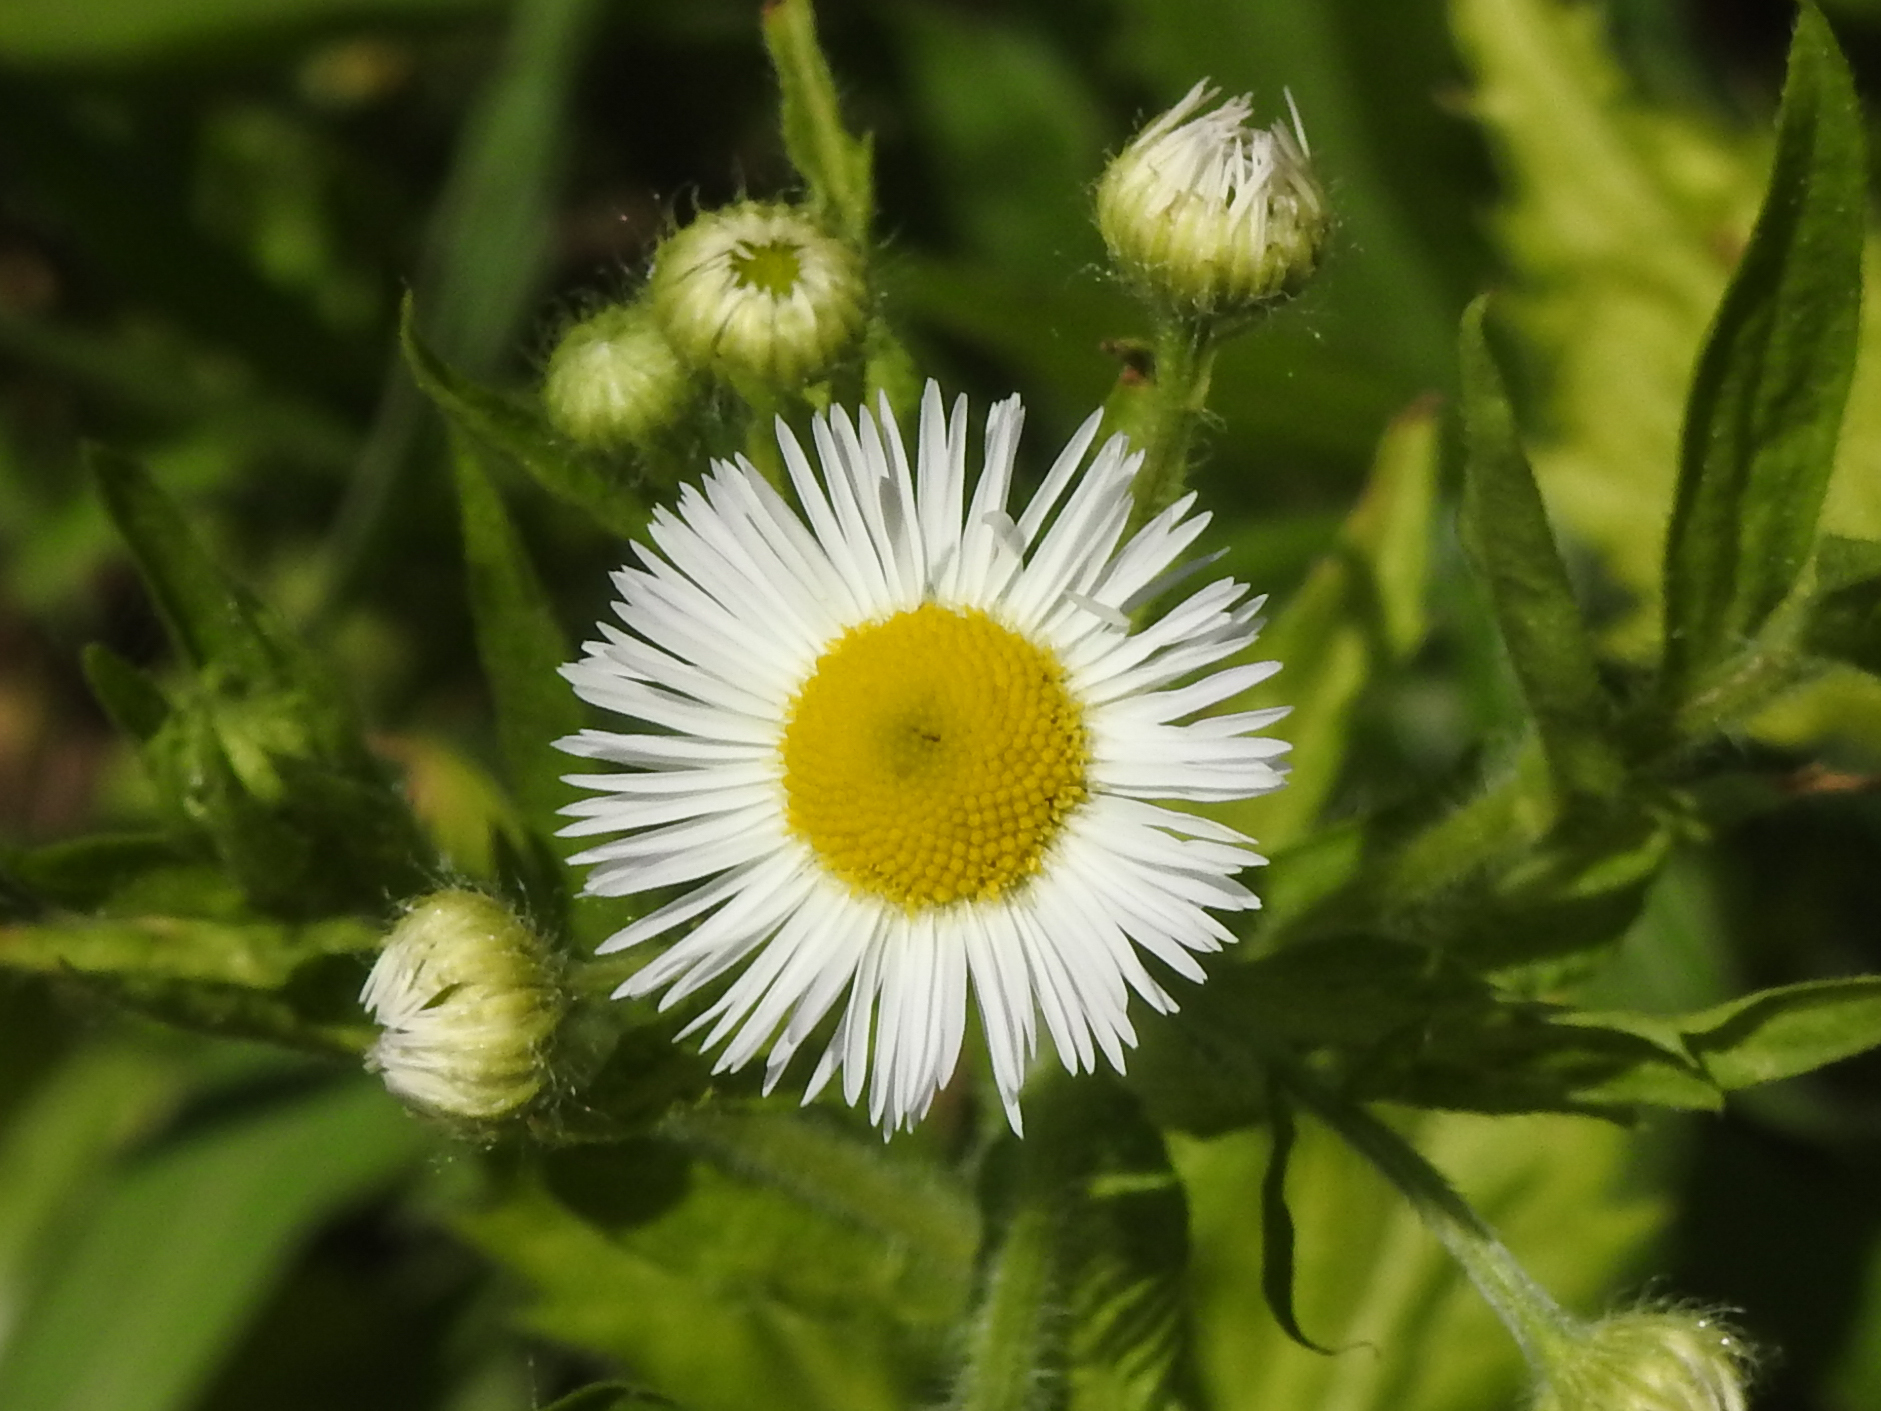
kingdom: Plantae
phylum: Tracheophyta
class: Magnoliopsida
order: Asterales
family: Asteraceae
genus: Erigeron
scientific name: Erigeron annuus
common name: Tall fleabane
